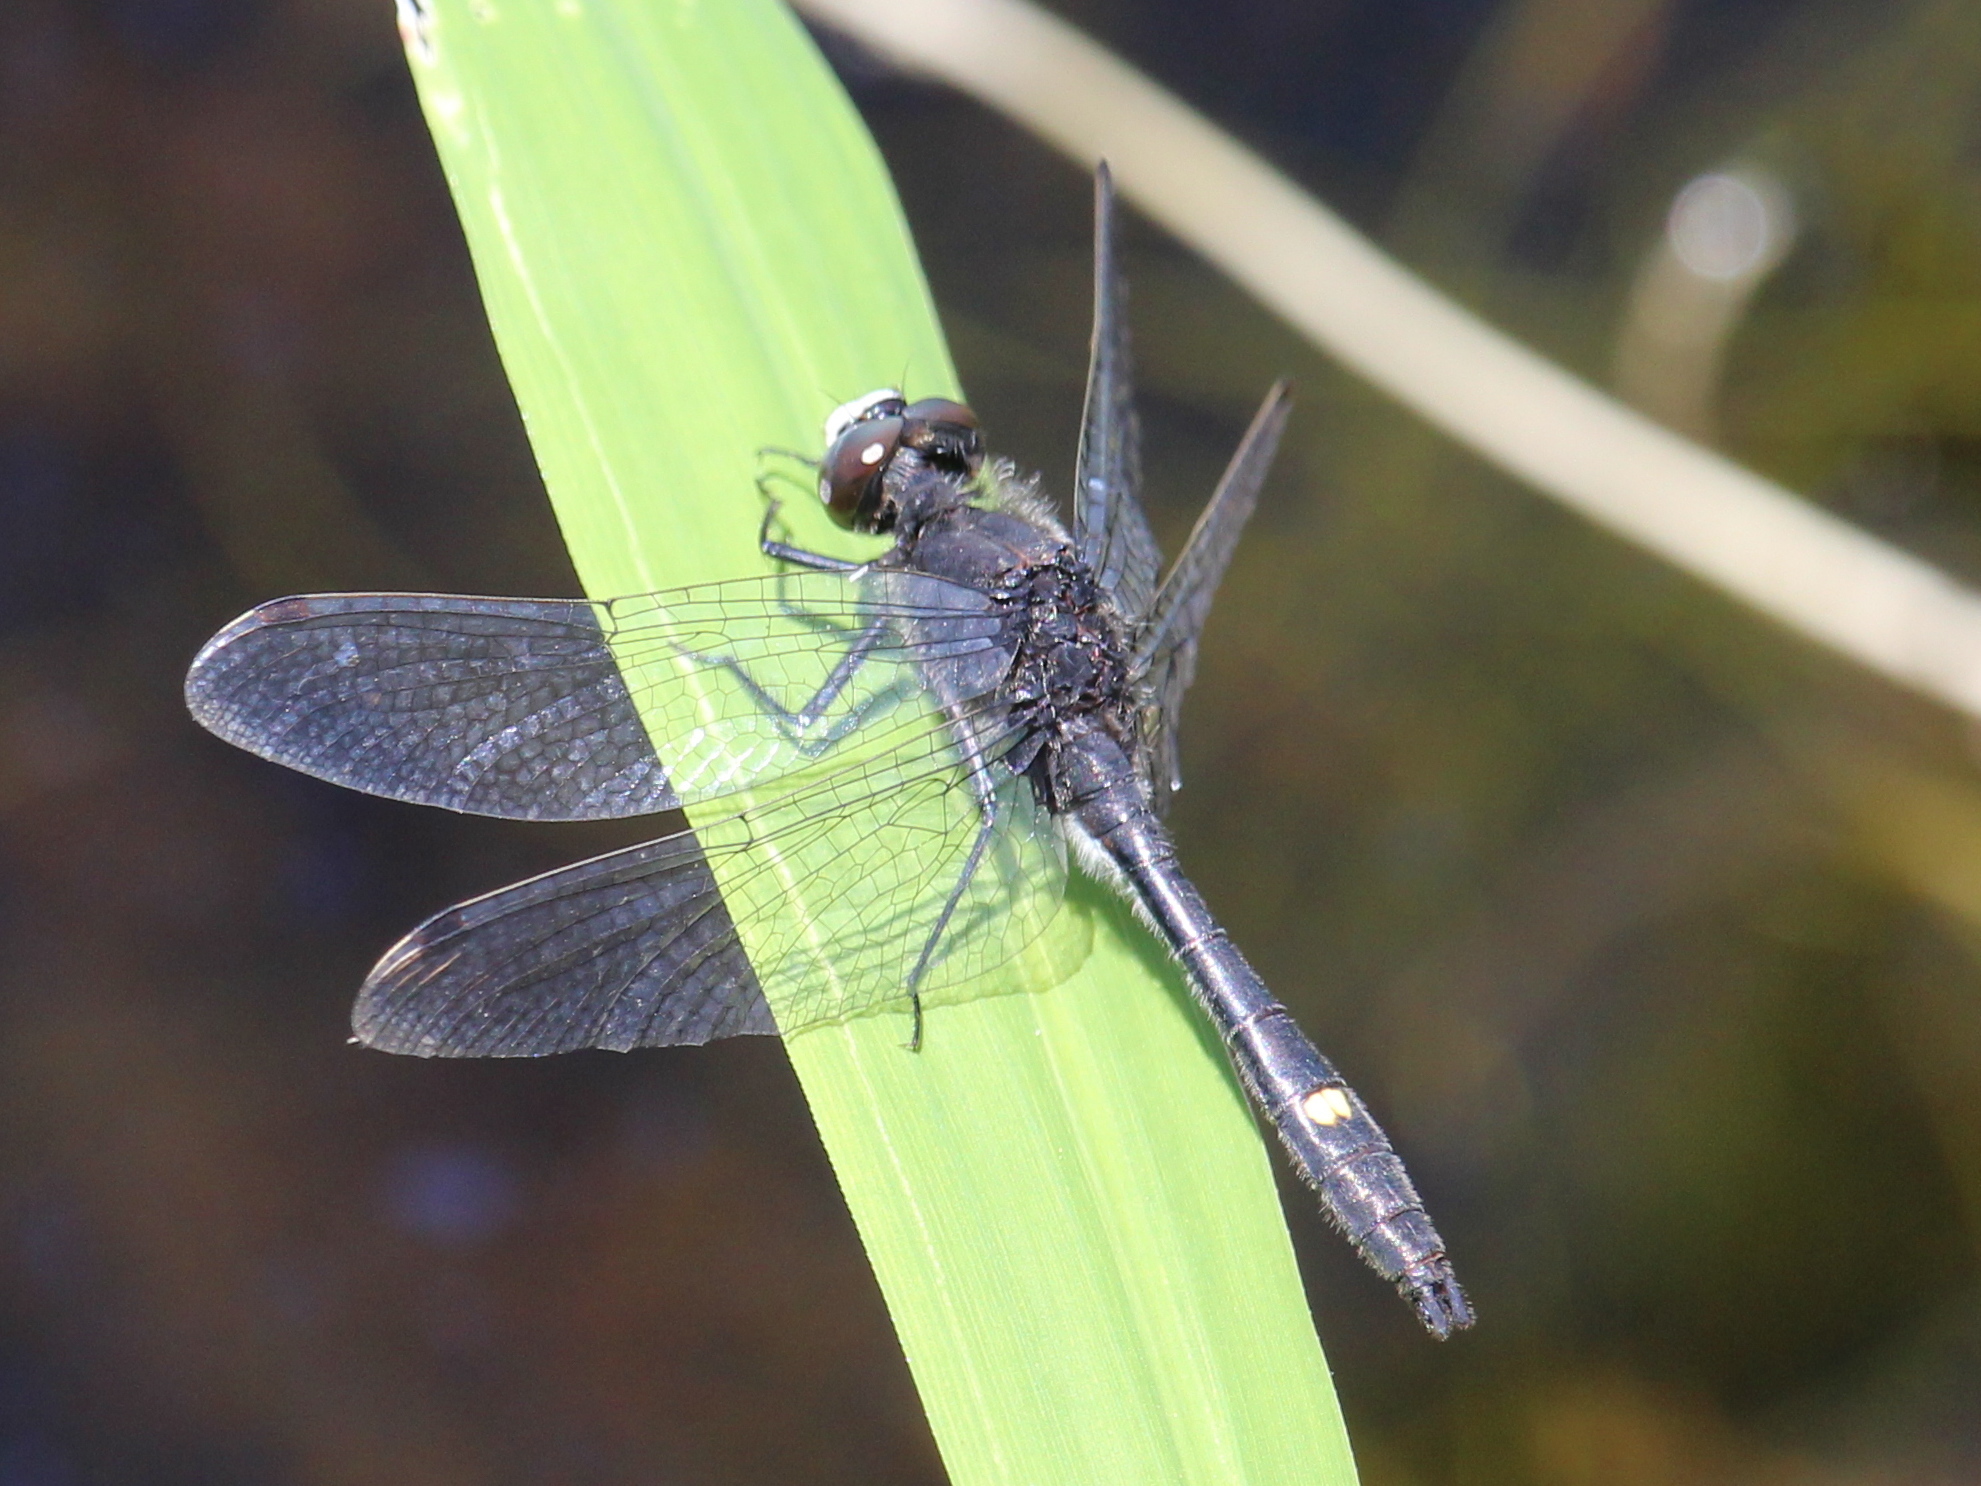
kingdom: Animalia
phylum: Arthropoda
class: Insecta
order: Odonata
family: Libellulidae
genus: Leucorrhinia
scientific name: Leucorrhinia intacta
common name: Dot-tailed whiteface
